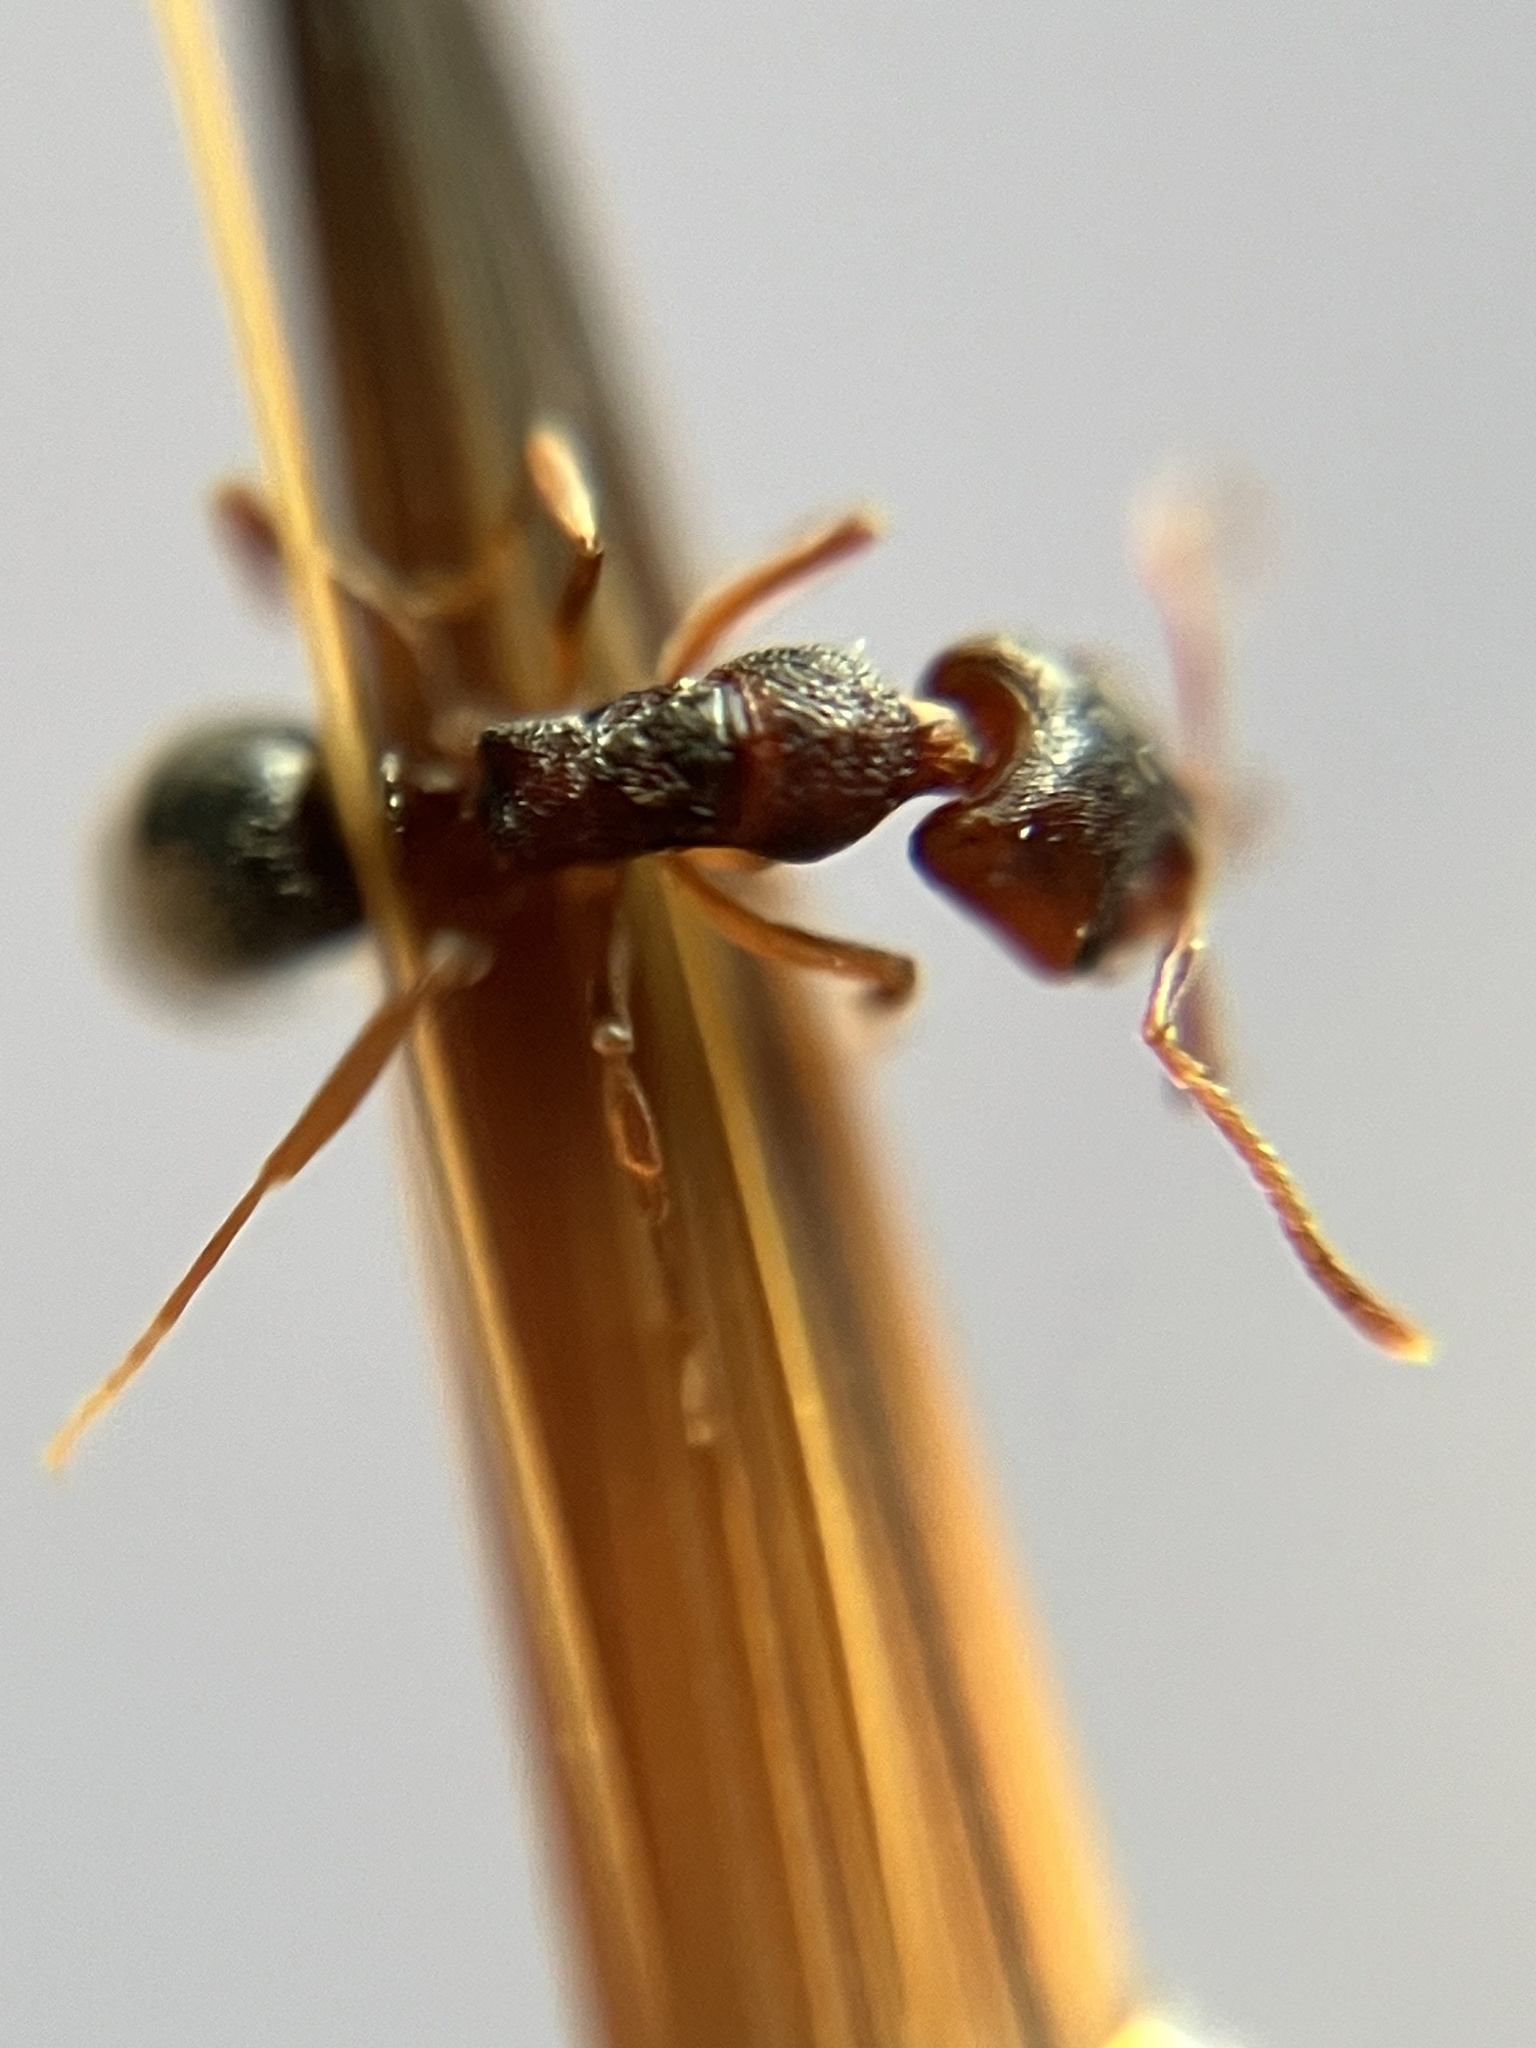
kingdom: Animalia
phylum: Arthropoda
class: Insecta
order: Hymenoptera
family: Formicidae
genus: Anochetus
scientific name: Anochetus graeffei
